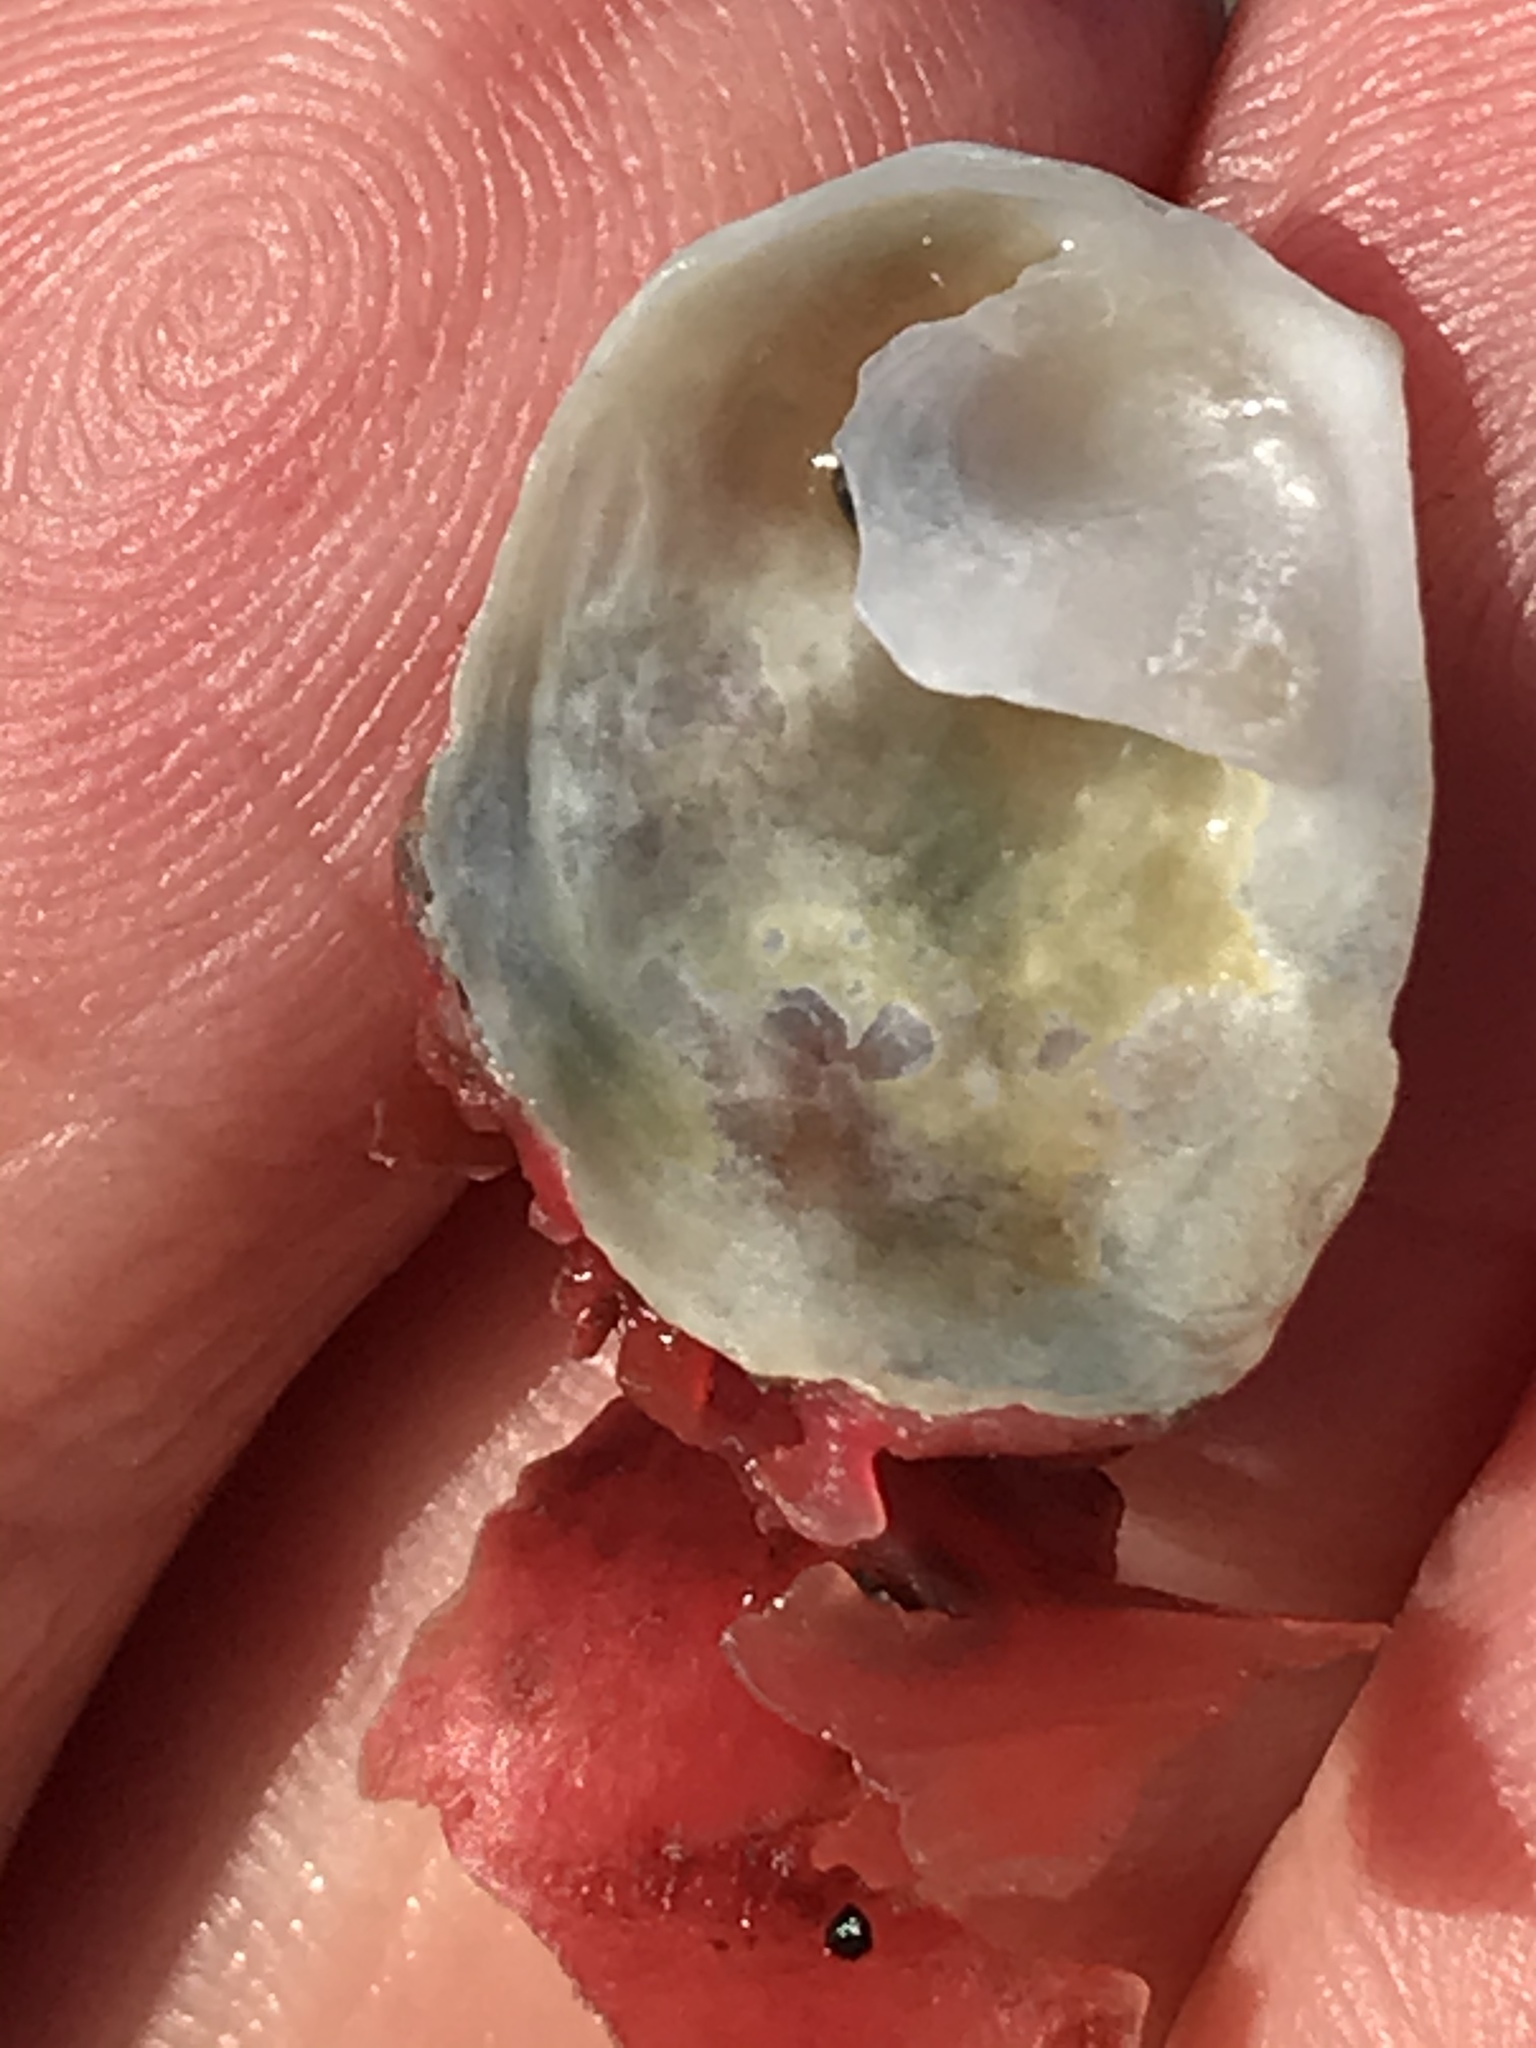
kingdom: Animalia
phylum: Mollusca
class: Gastropoda
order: Littorinimorpha
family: Calyptraeidae
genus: Crepipatella
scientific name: Crepipatella lingulata
